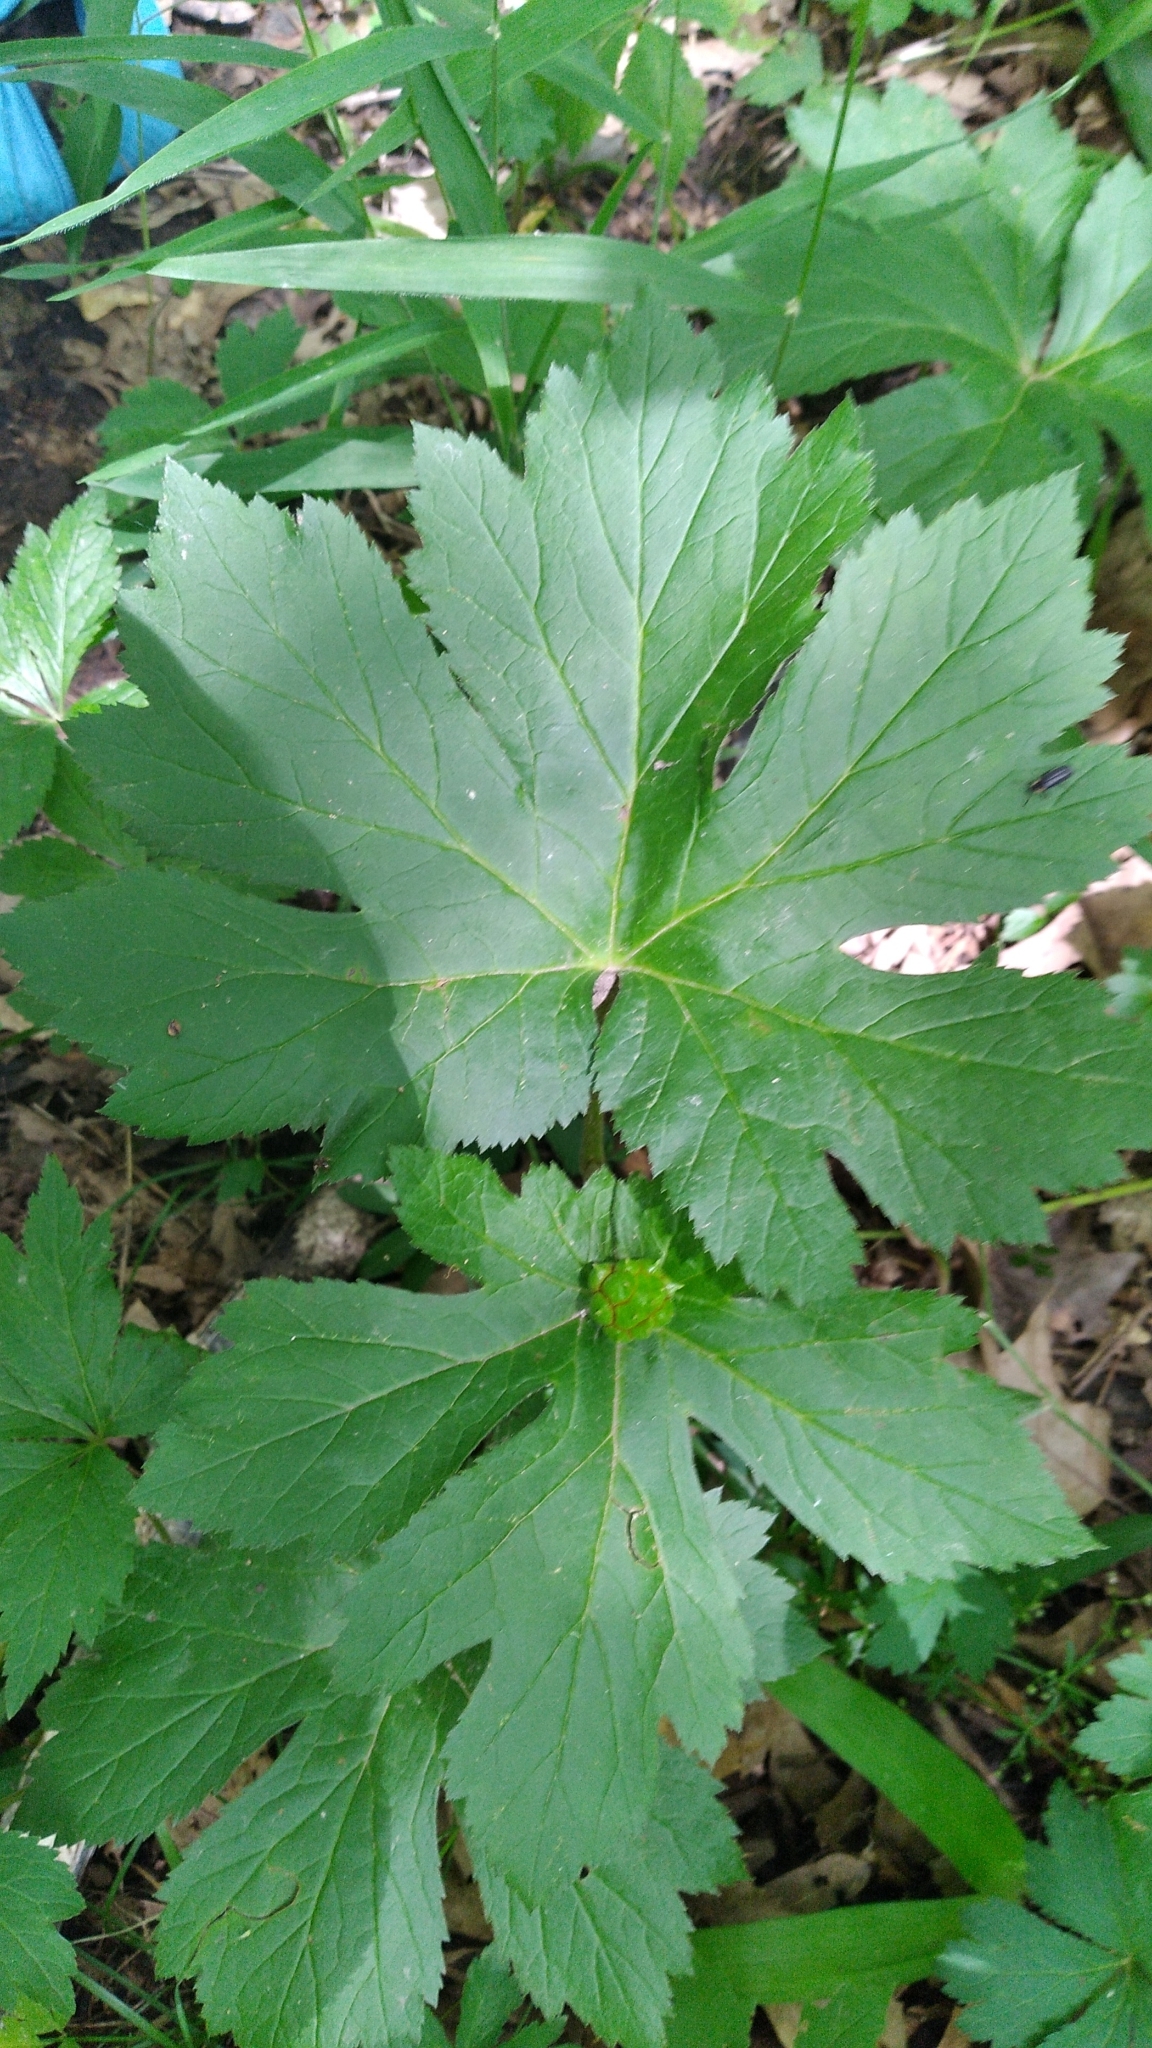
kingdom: Plantae
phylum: Tracheophyta
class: Magnoliopsida
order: Ranunculales
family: Ranunculaceae
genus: Hydrastis
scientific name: Hydrastis canadensis
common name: Goldenseal
